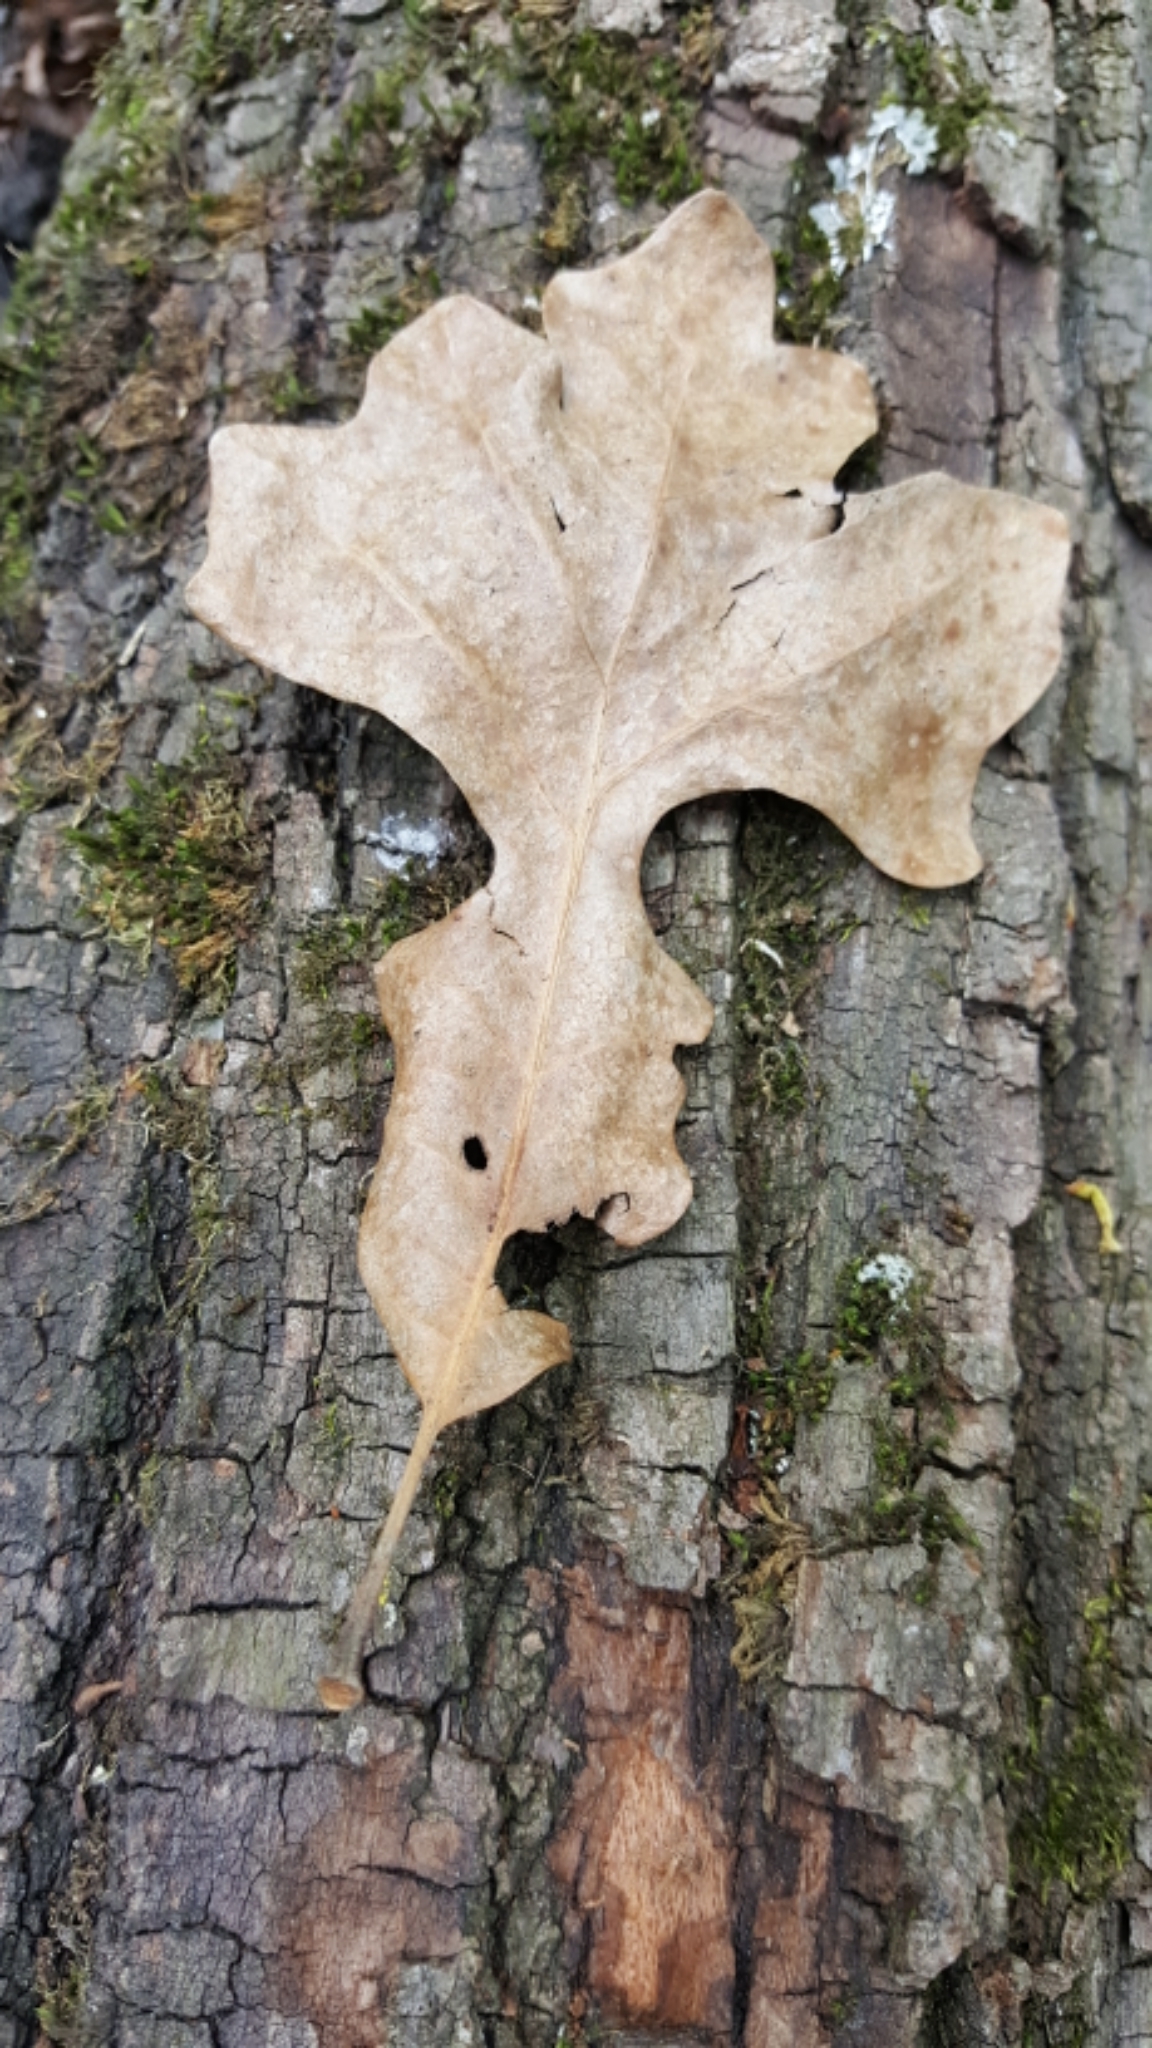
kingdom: Plantae
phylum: Tracheophyta
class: Magnoliopsida
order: Fagales
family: Fagaceae
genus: Quercus
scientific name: Quercus macrocarpa
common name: Bur oak
